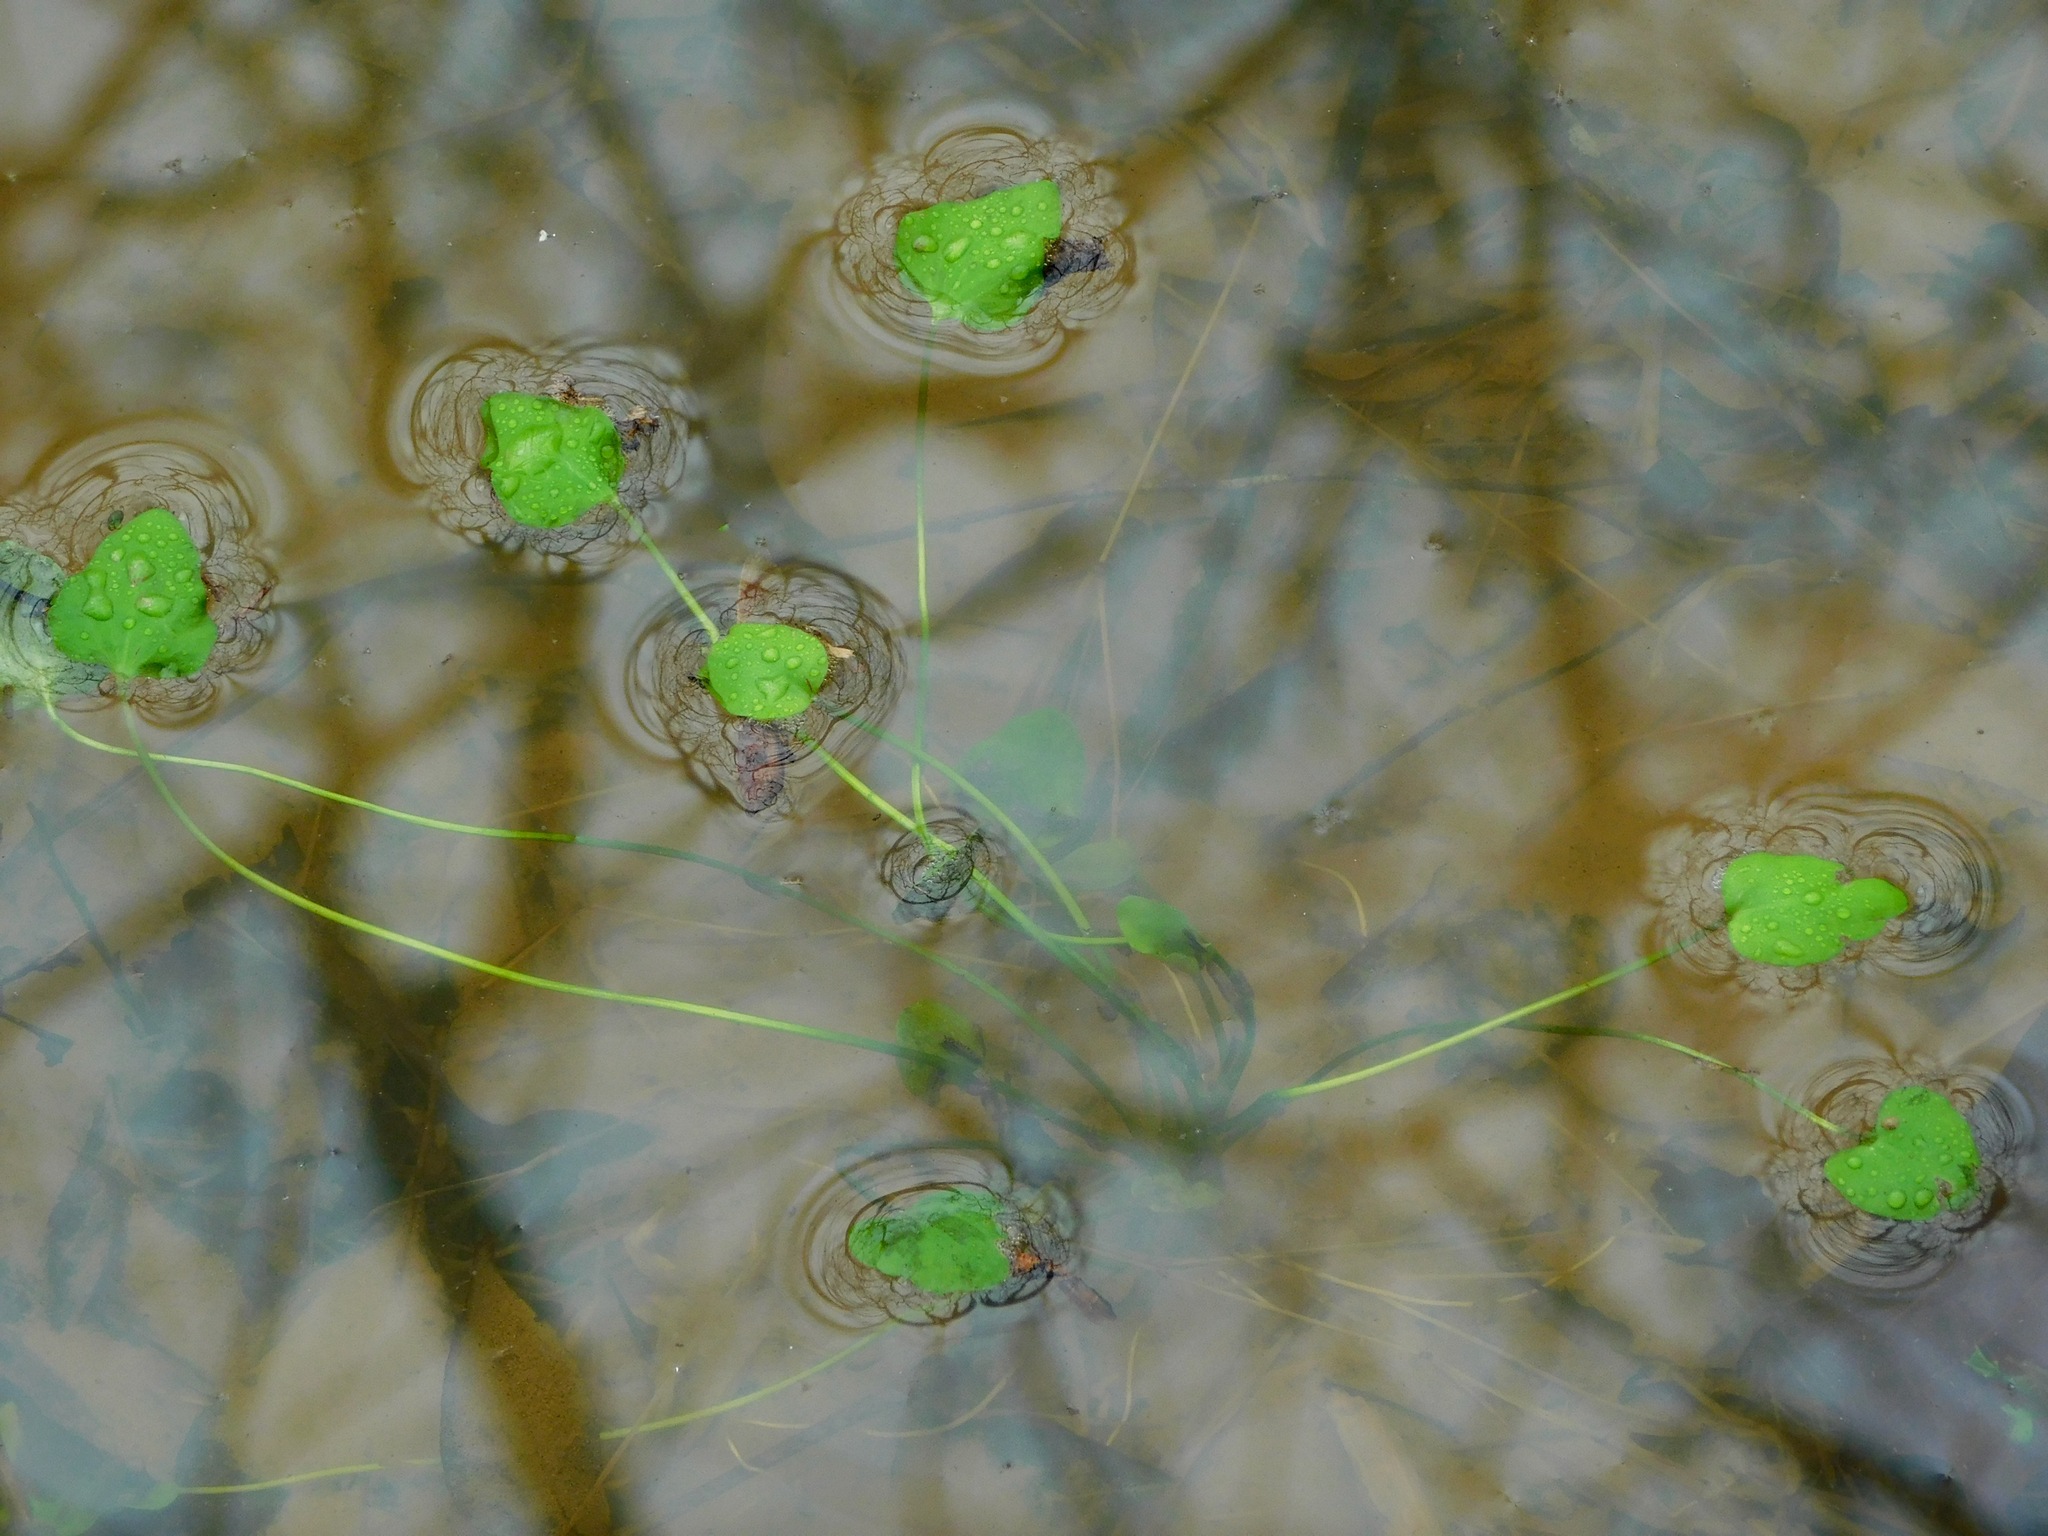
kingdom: Plantae
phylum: Tracheophyta
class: Magnoliopsida
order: Ranunculales
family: Ranunculaceae
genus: Ranunculus
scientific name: Ranunculus pusillus
